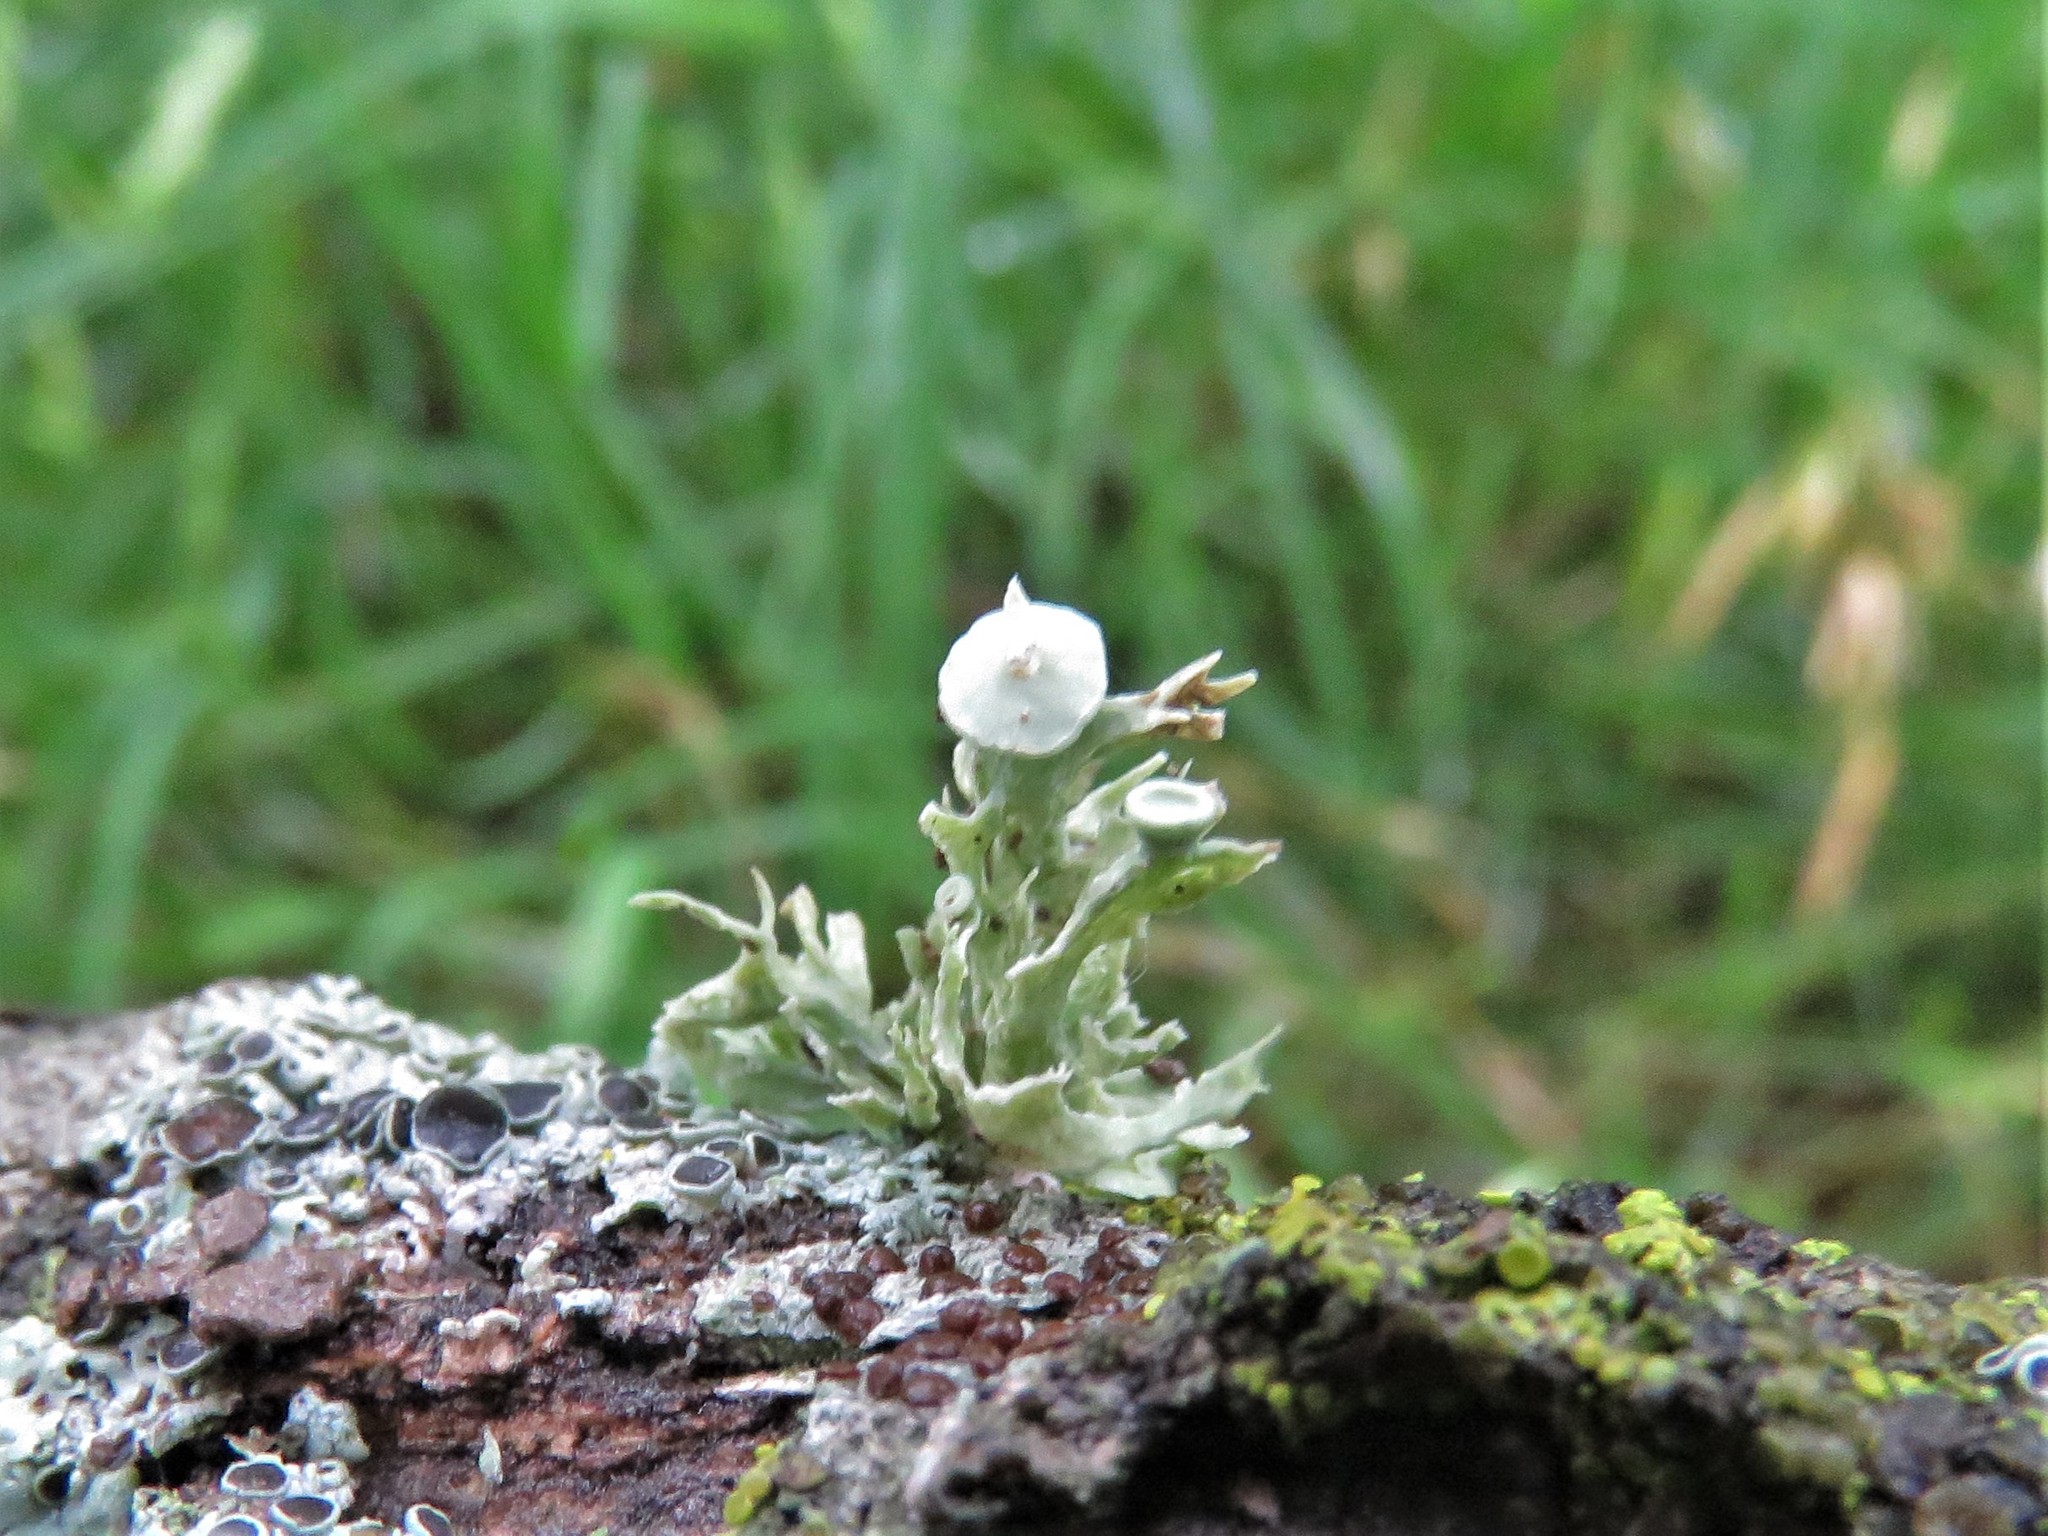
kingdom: Fungi
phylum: Ascomycota
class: Lecanoromycetes
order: Lecanorales
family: Ramalinaceae
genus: Ramalina
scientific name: Ramalina americana
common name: Sinewed bush lichen
